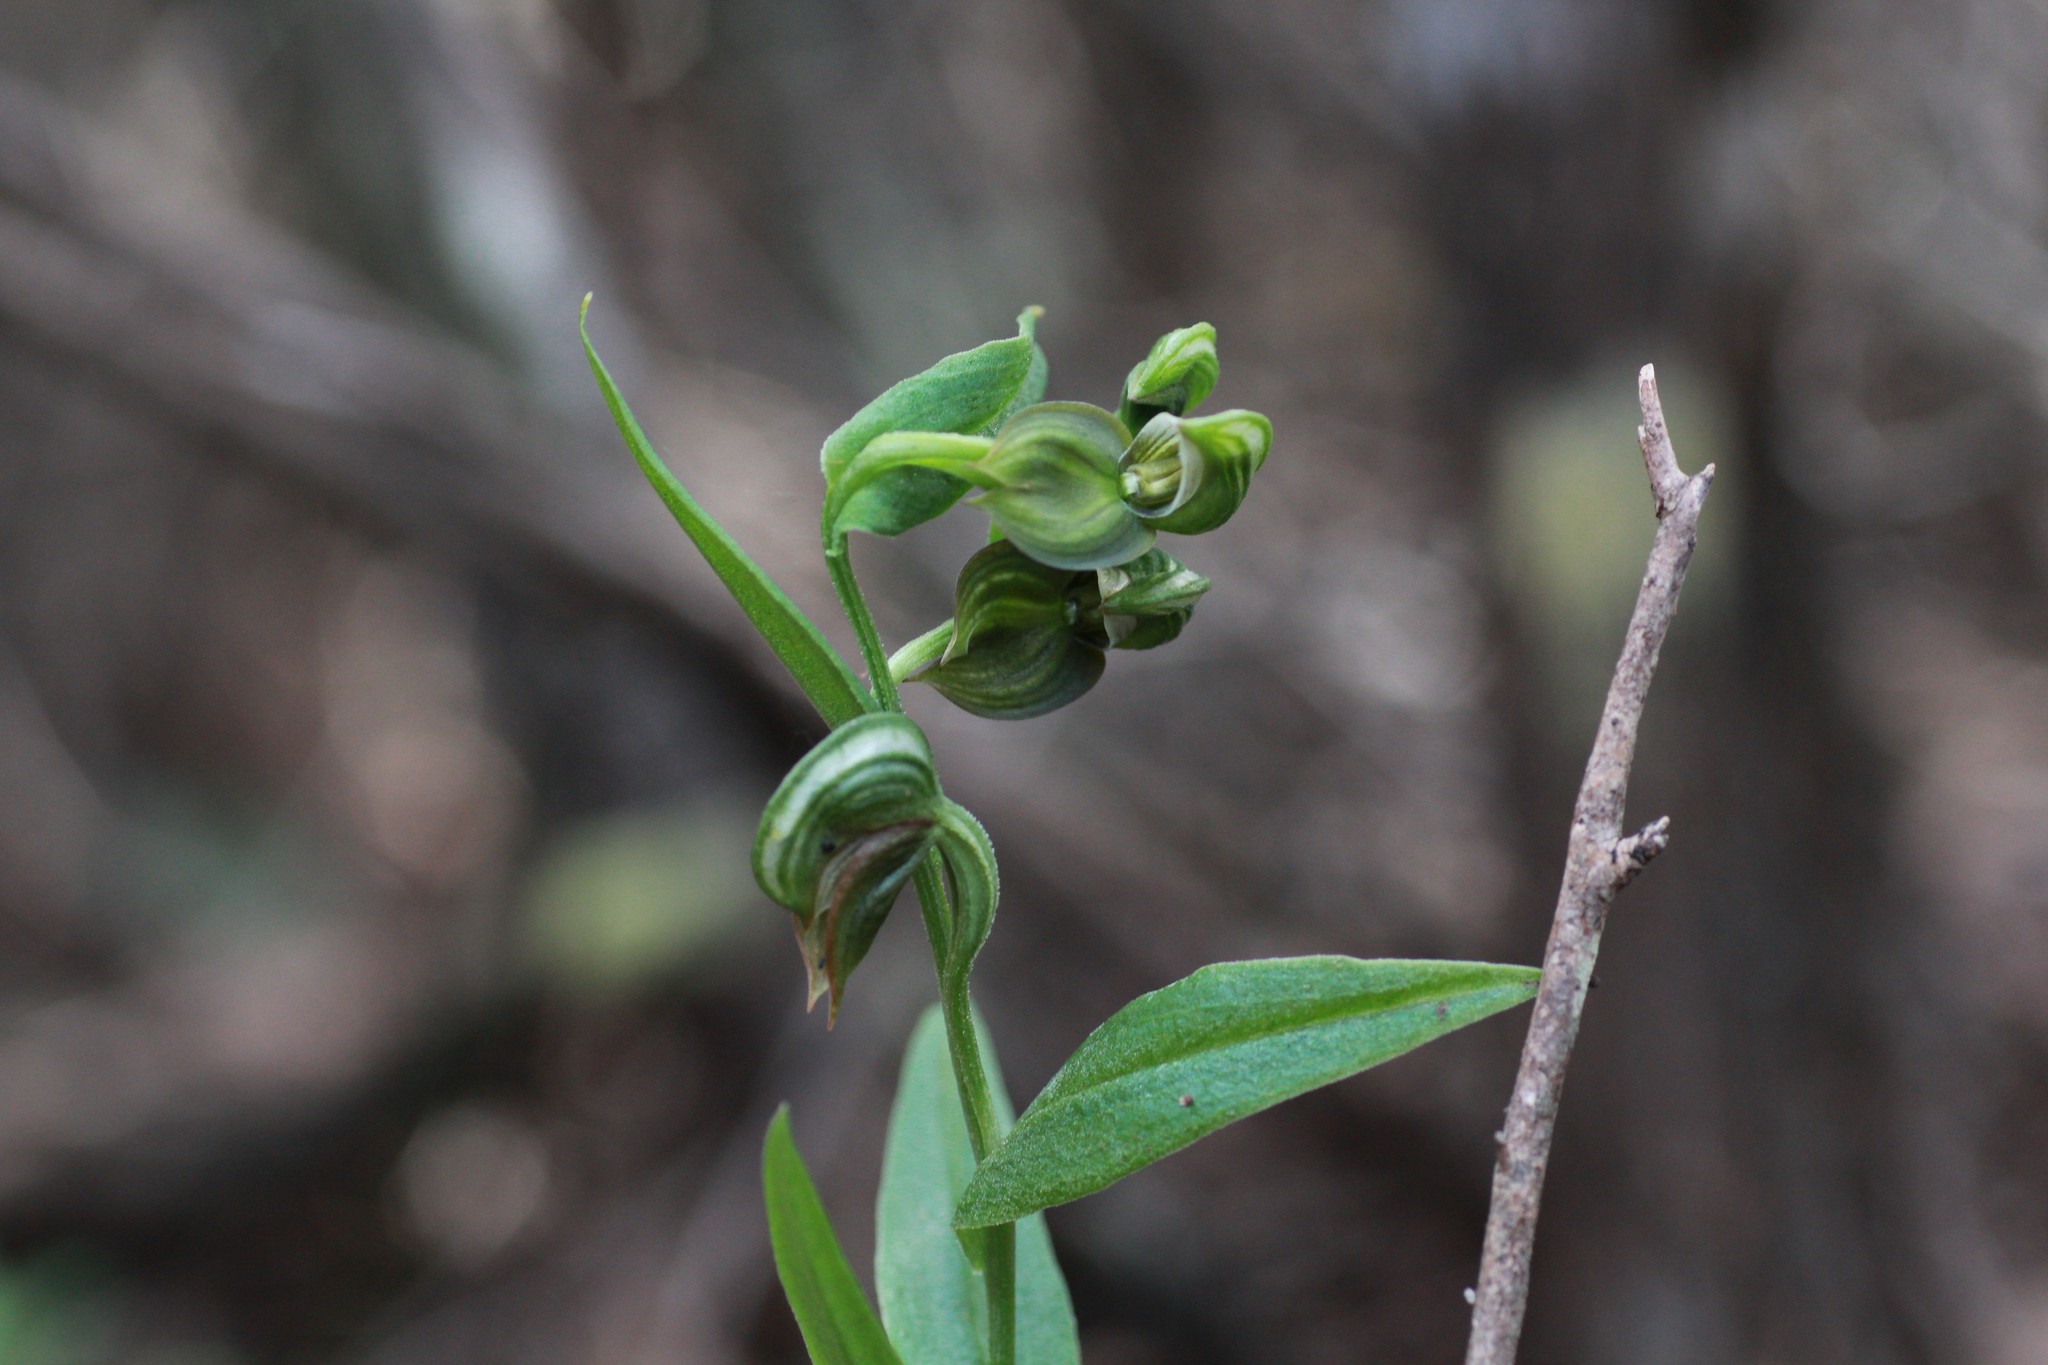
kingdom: Plantae
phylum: Tracheophyta
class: Liliopsida
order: Asparagales
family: Orchidaceae
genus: Pterostylis
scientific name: Pterostylis vittata
